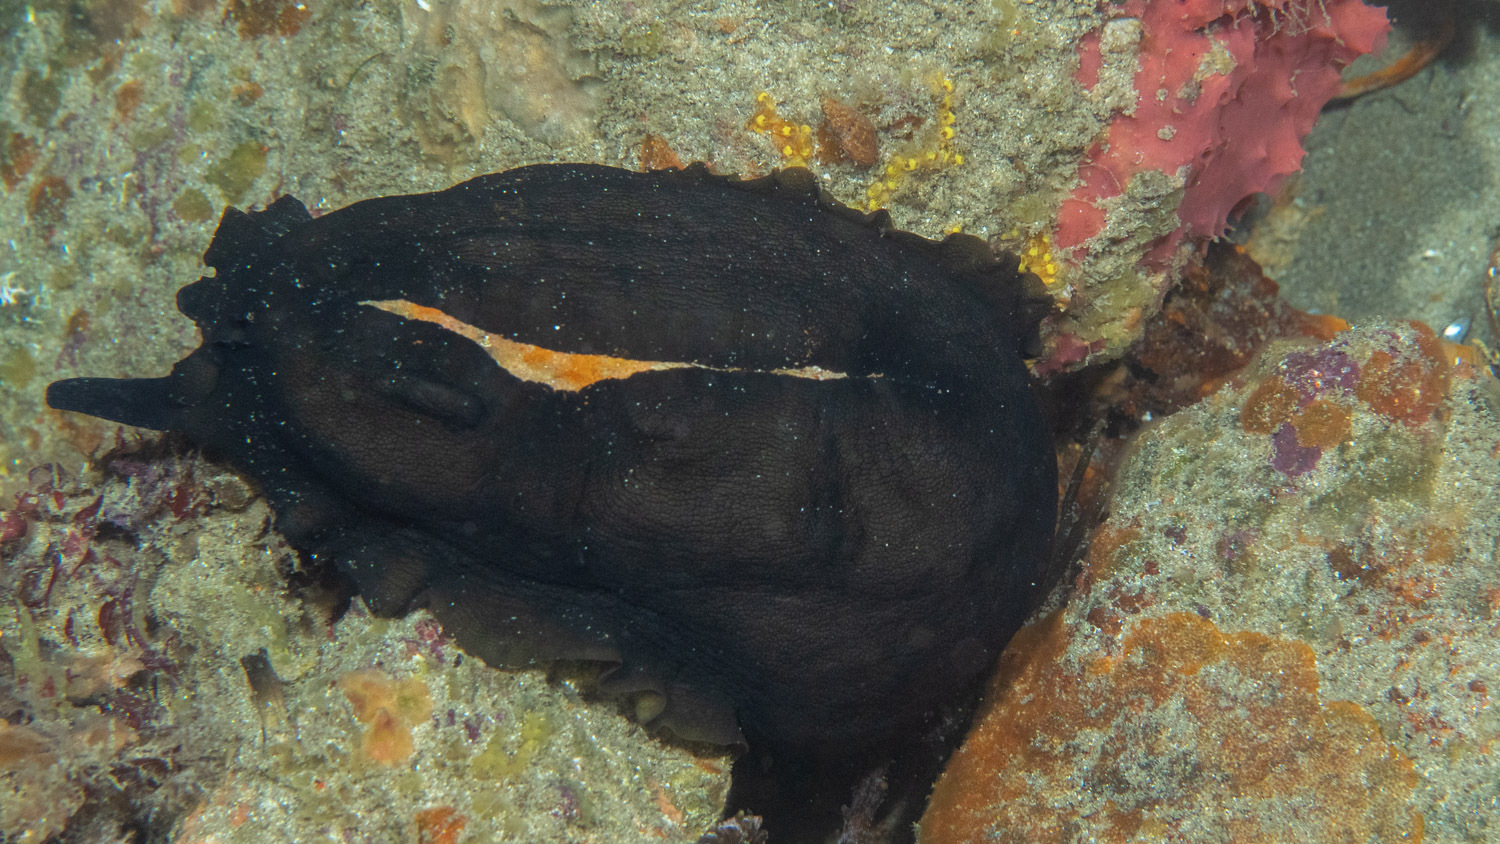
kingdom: Animalia
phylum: Mollusca
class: Gastropoda
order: Lepetellida
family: Fissurellidae
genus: Scutus
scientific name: Scutus antipodes
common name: Duckbill shell
